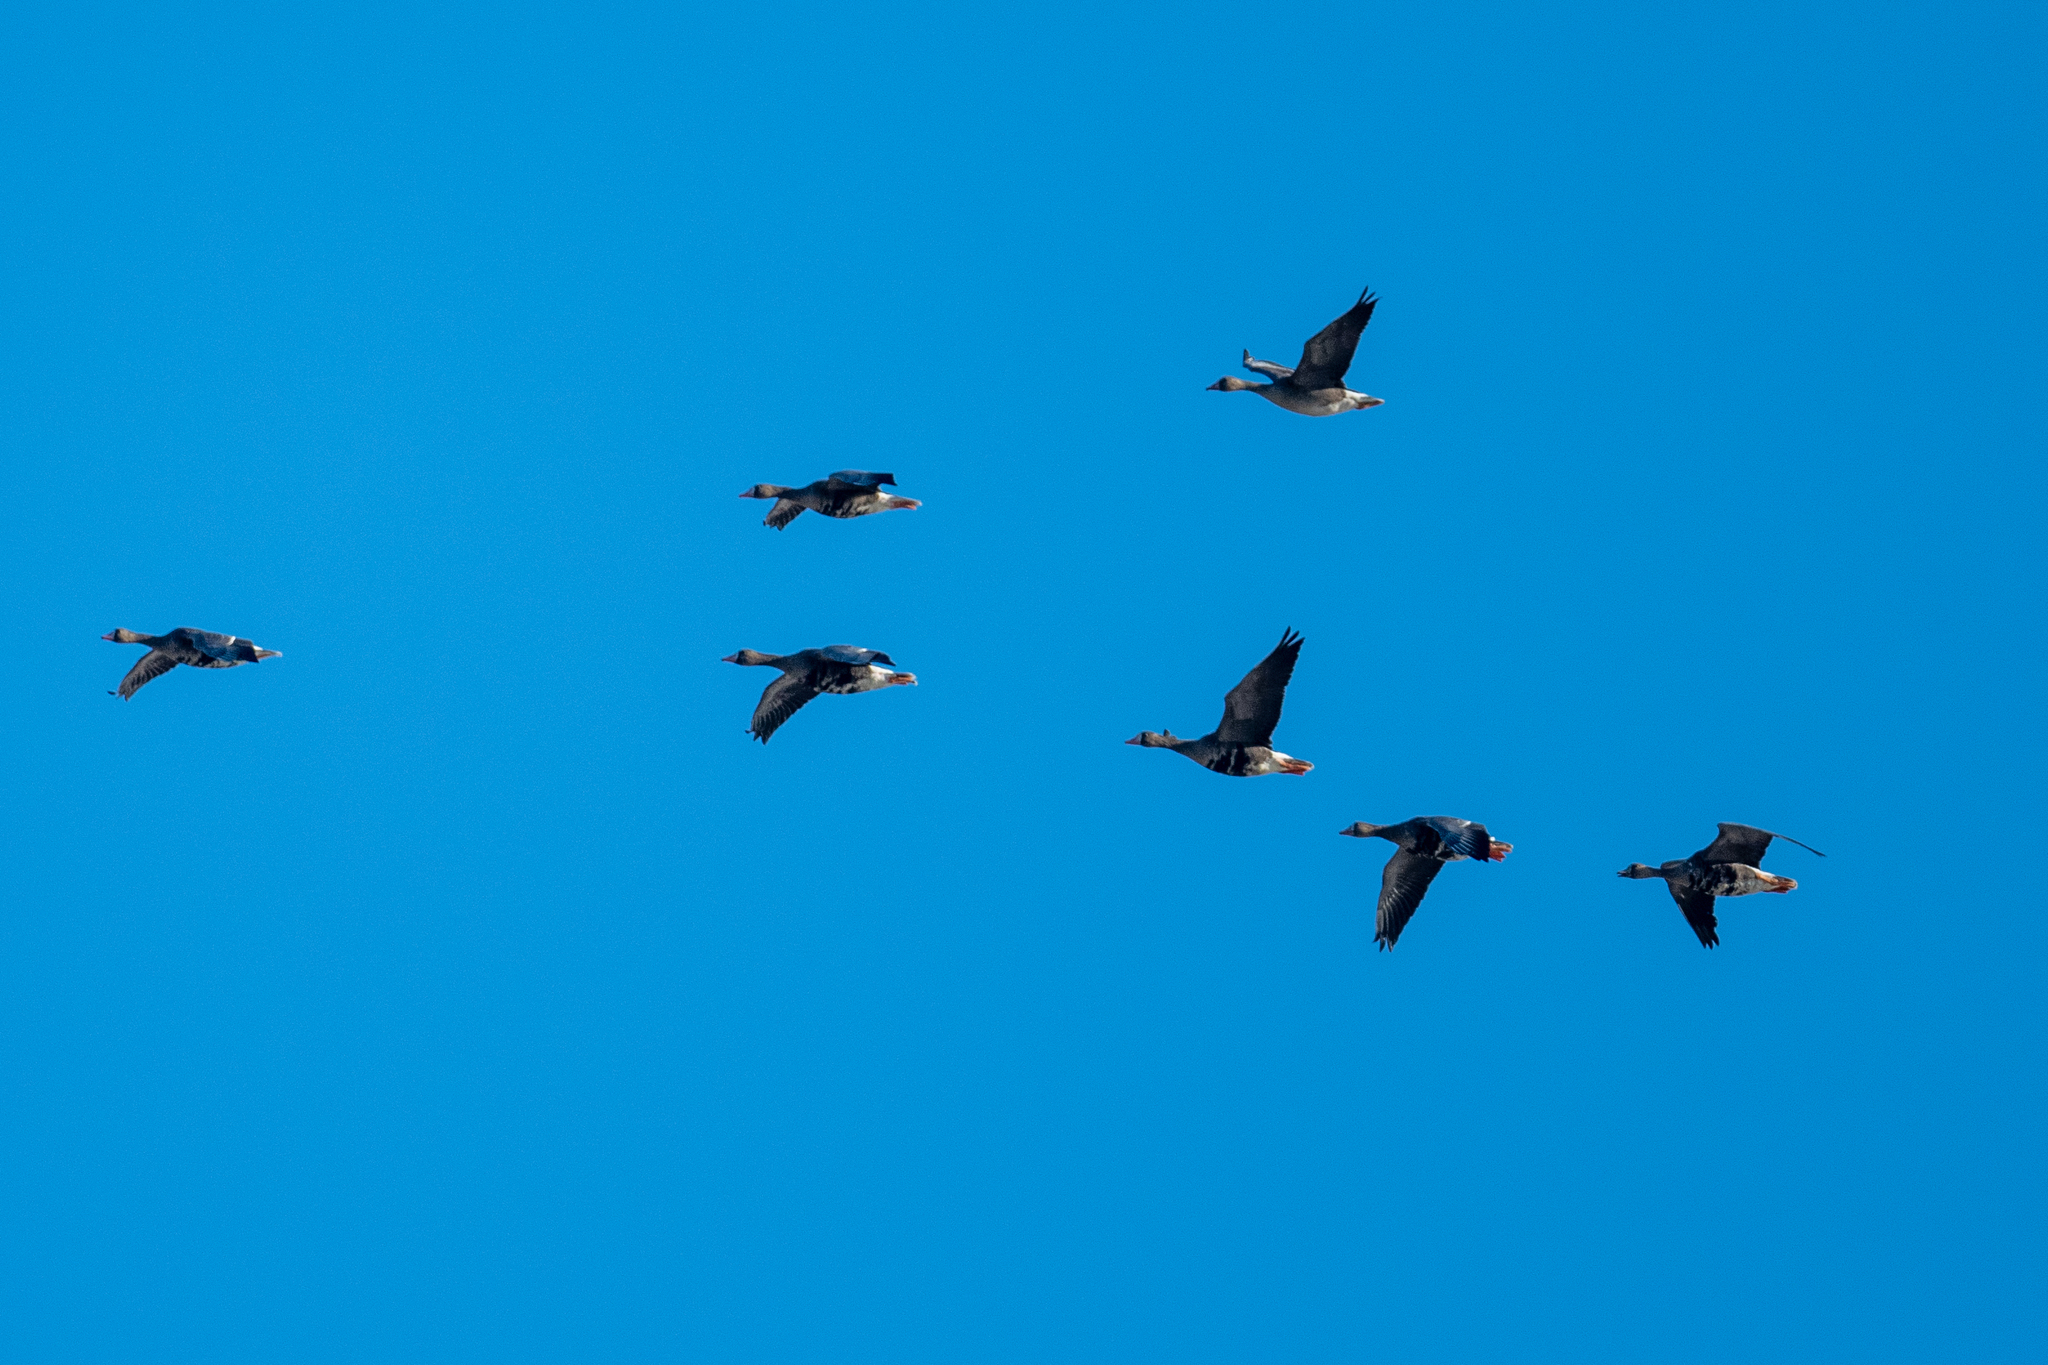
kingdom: Animalia
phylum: Chordata
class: Aves
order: Anseriformes
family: Anatidae
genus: Anser
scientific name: Anser albifrons
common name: Greater white-fronted goose
